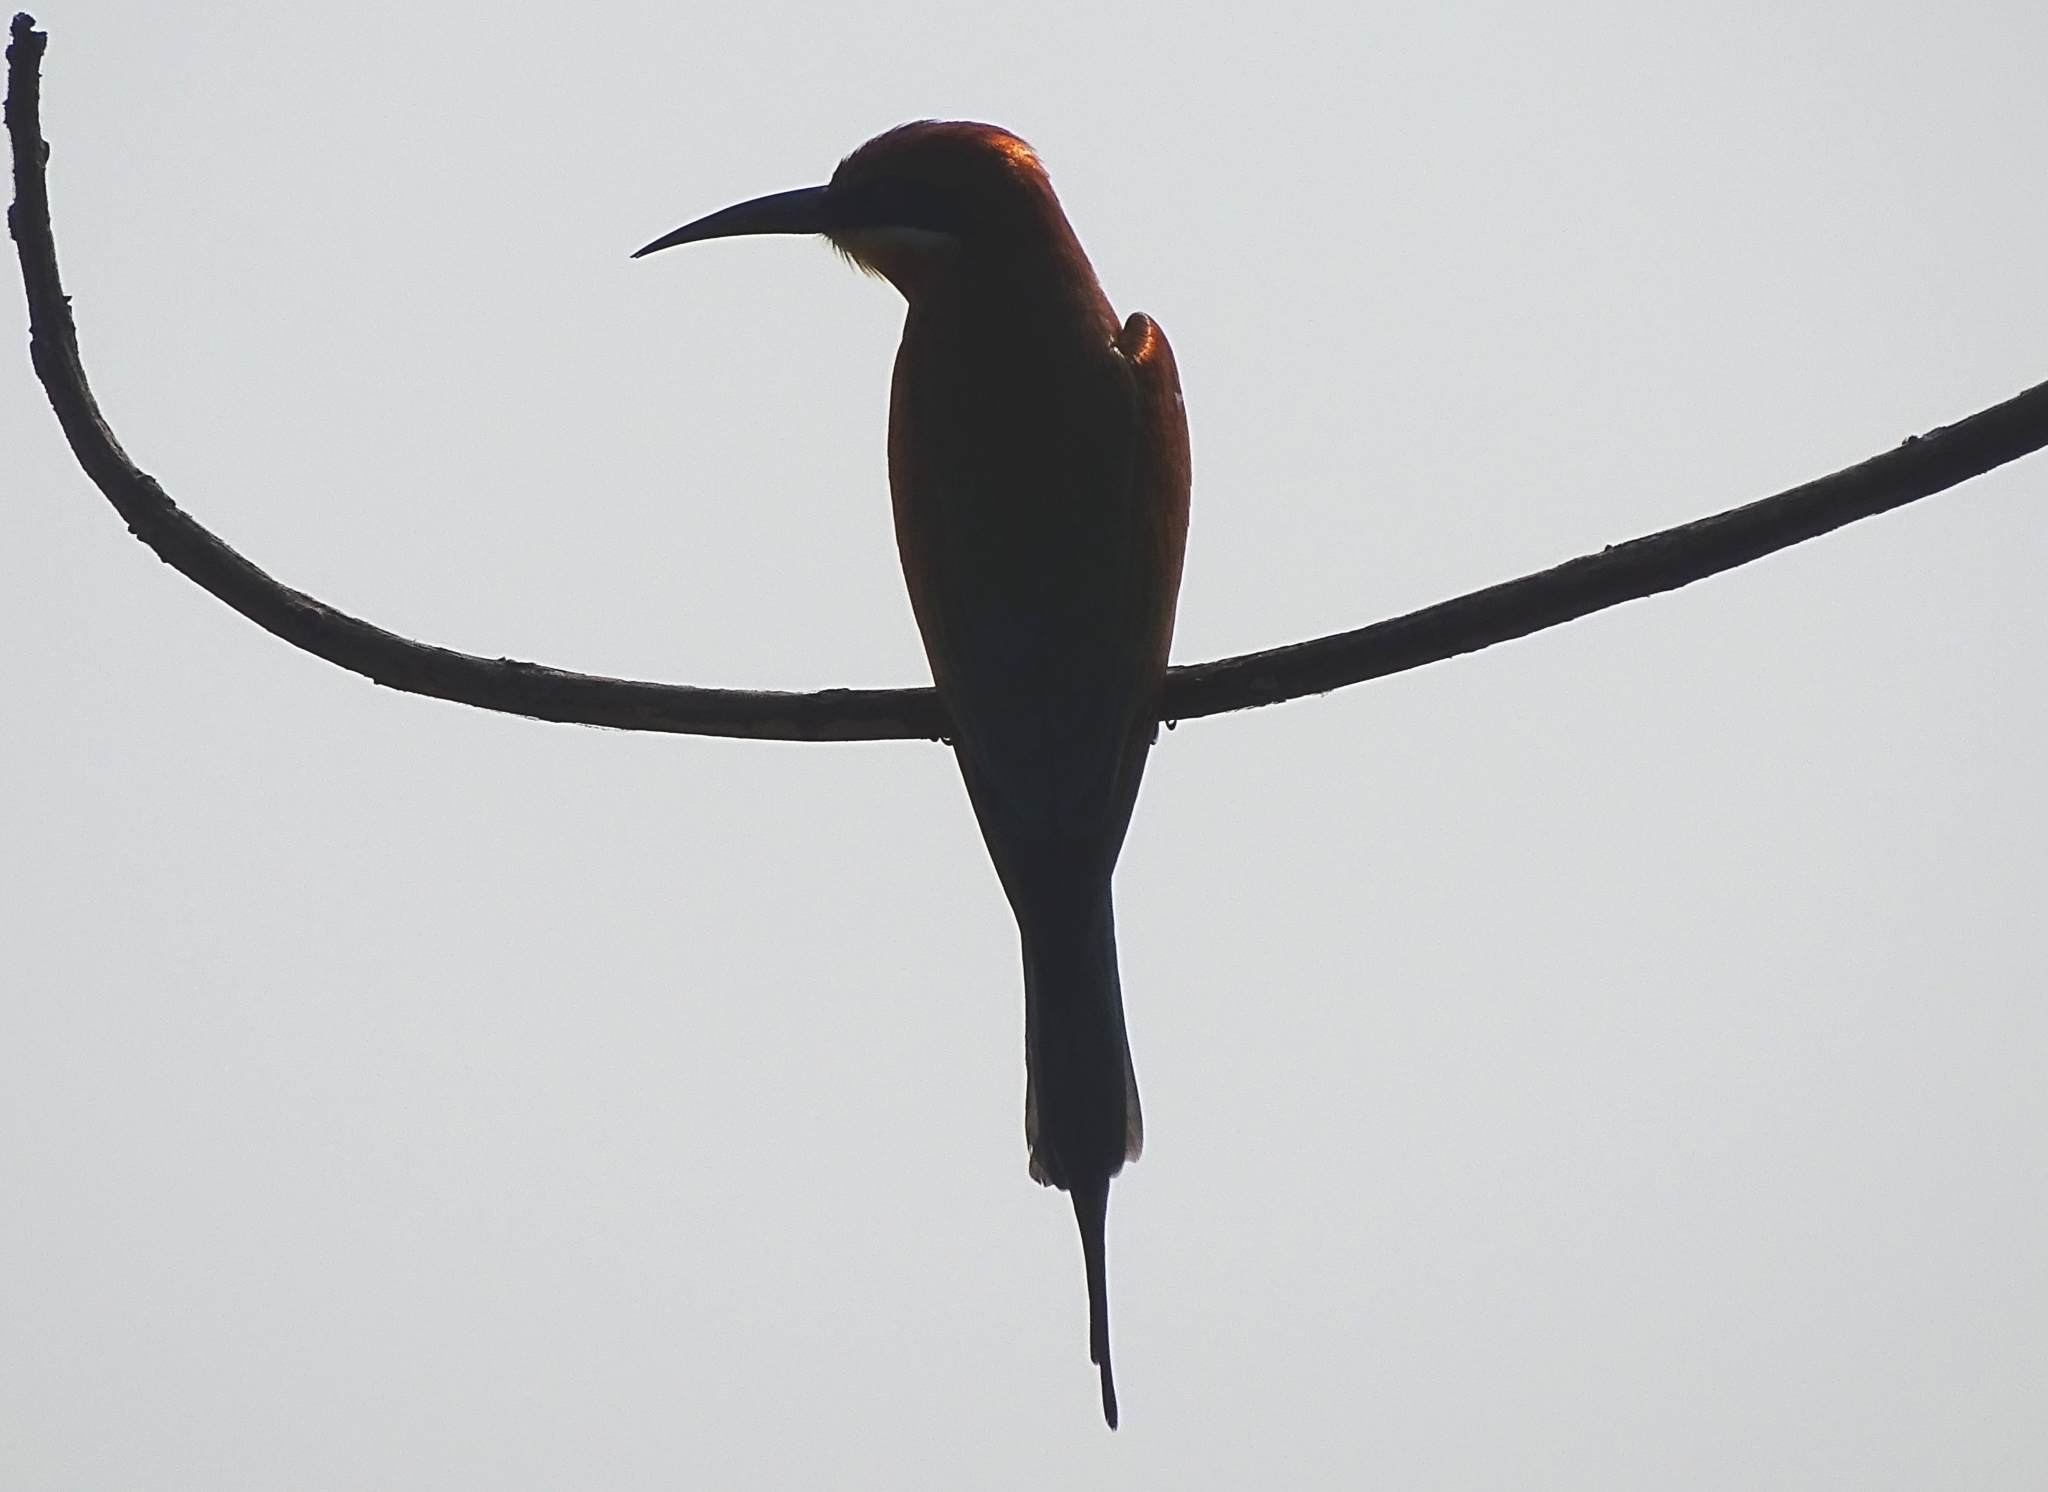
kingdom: Animalia
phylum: Chordata
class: Aves
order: Coraciiformes
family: Meropidae
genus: Merops
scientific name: Merops philippinus
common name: Blue-tailed bee-eater
